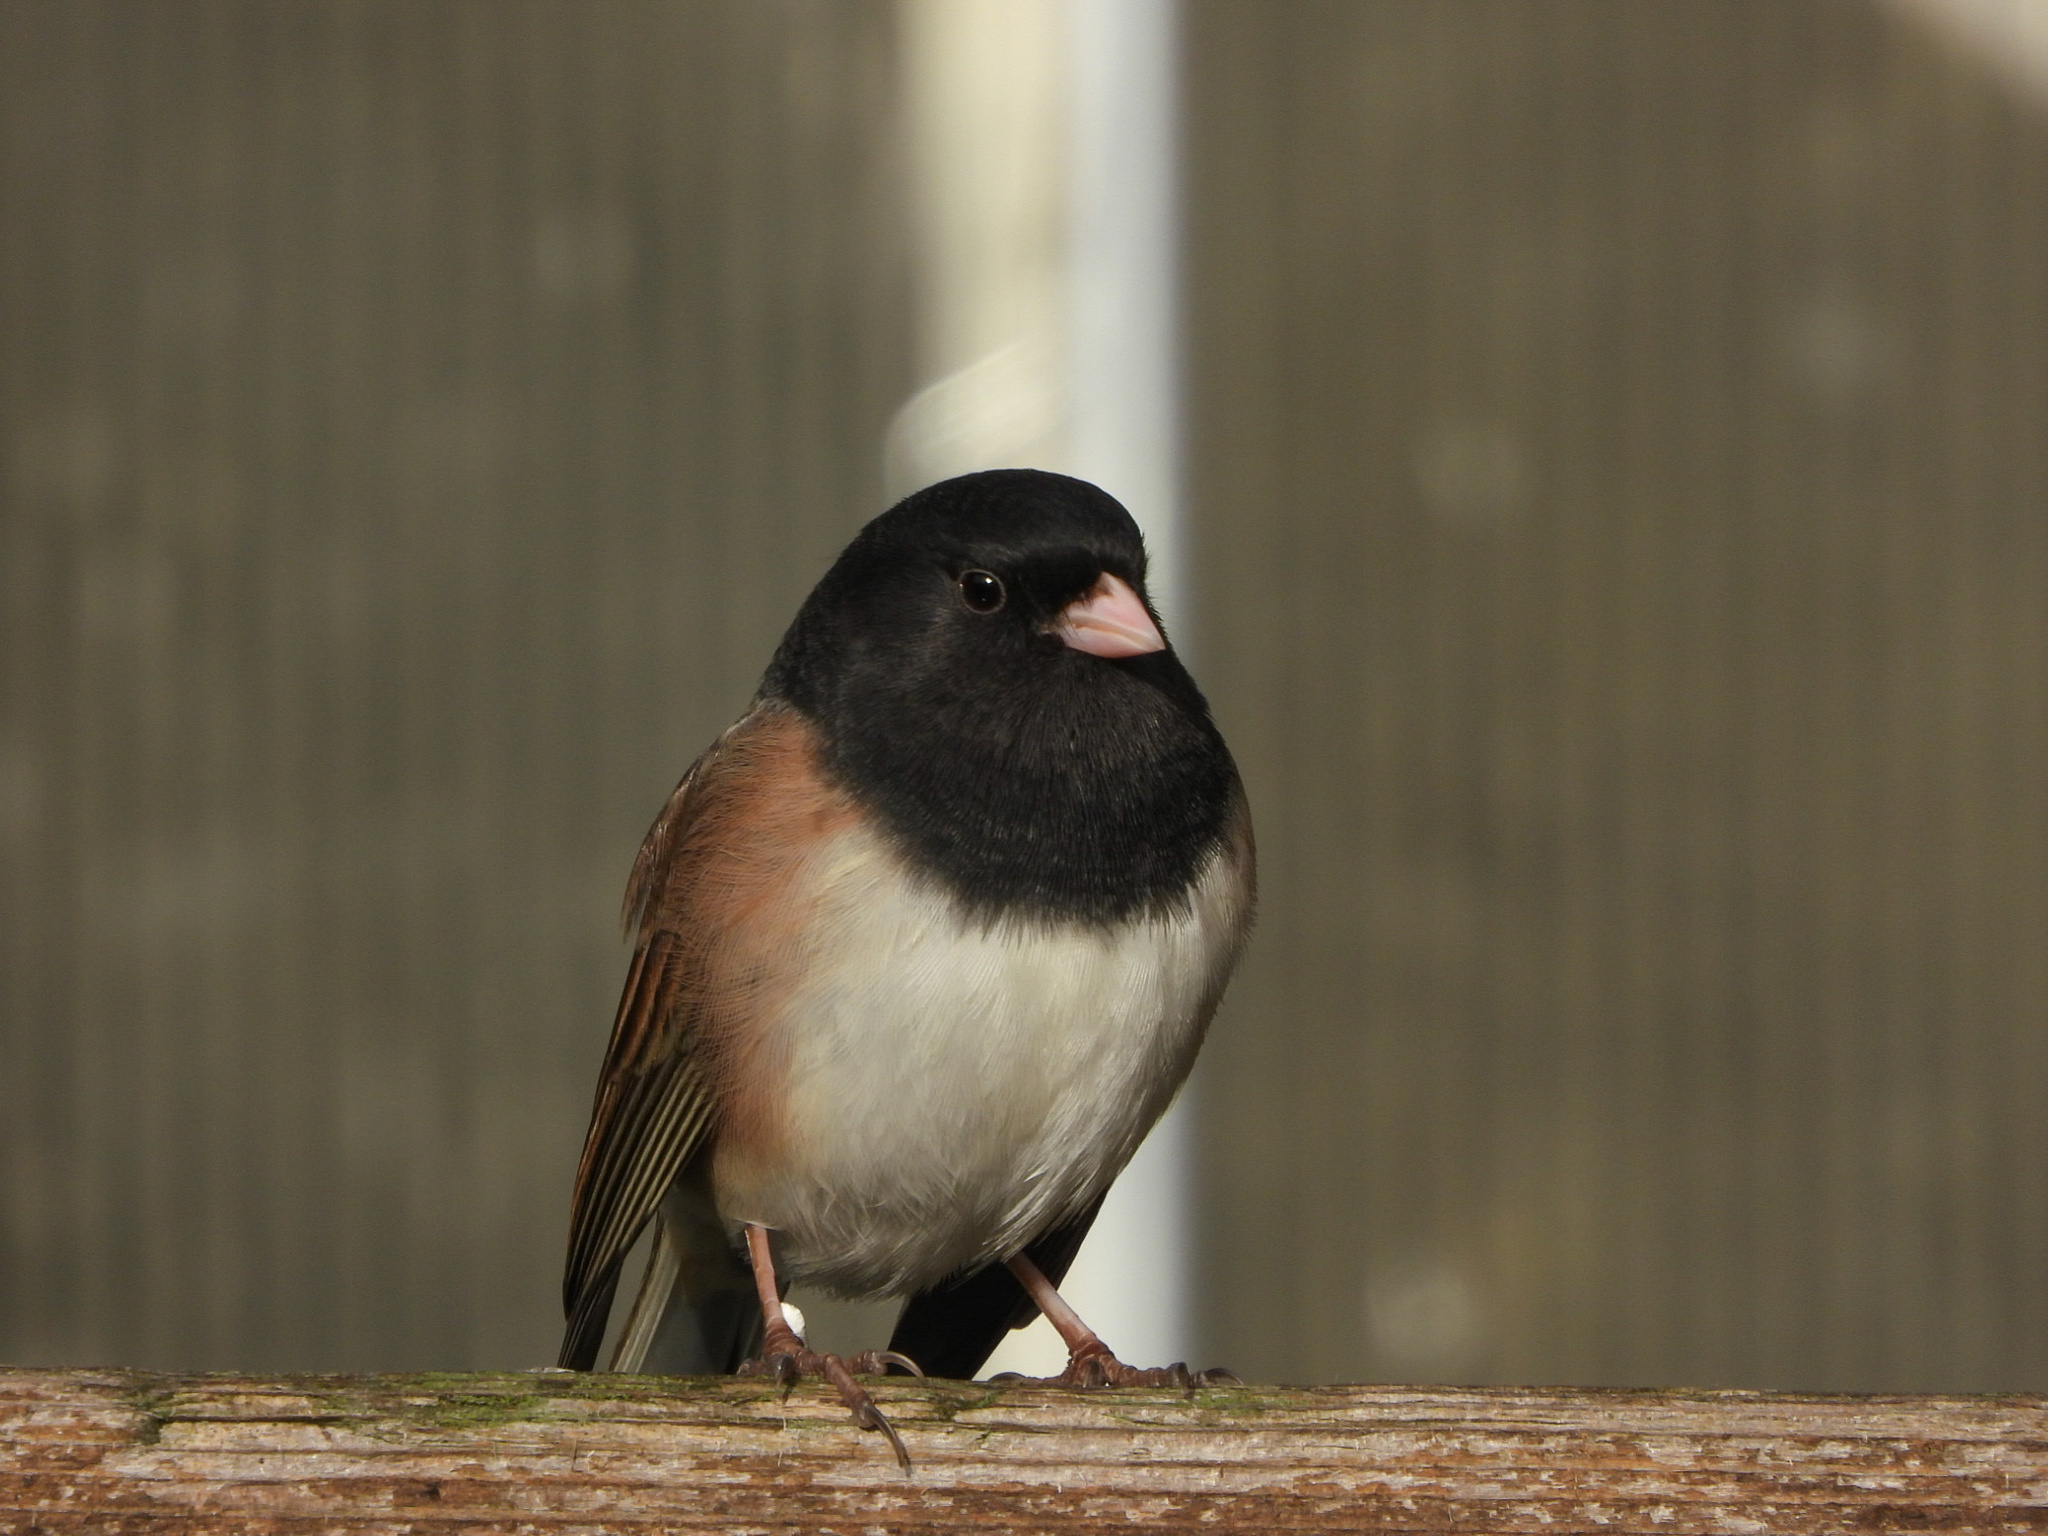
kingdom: Animalia
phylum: Chordata
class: Aves
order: Passeriformes
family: Passerellidae
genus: Junco
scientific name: Junco hyemalis
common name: Dark-eyed junco
